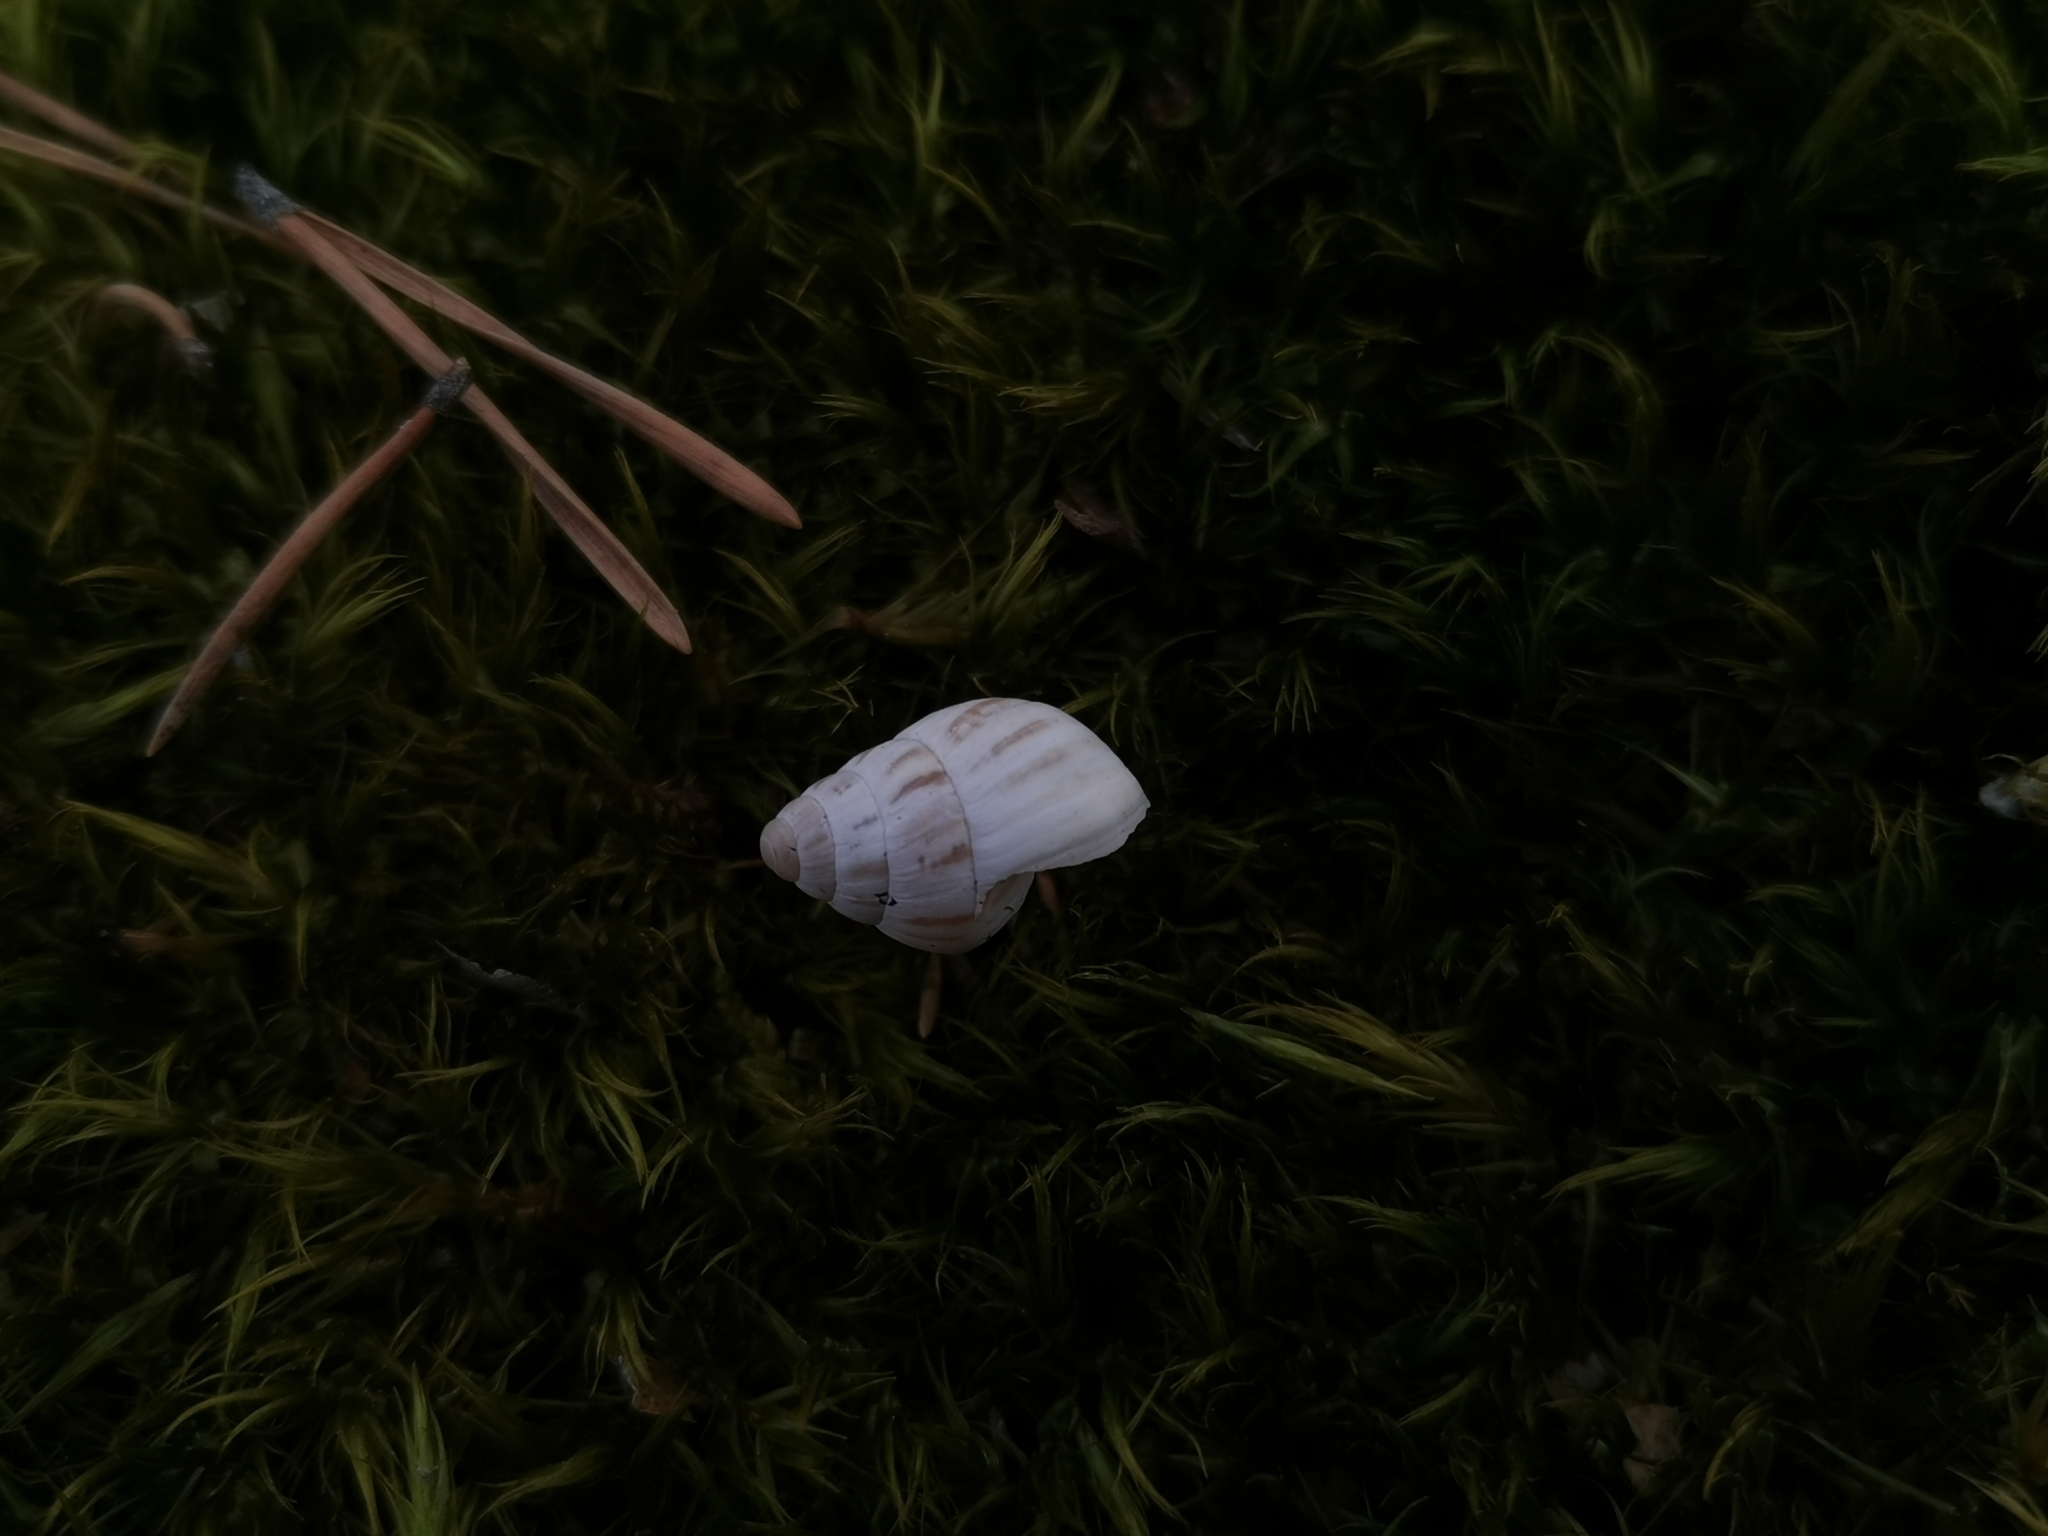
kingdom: Animalia
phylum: Mollusca
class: Gastropoda
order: Stylommatophora
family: Enidae
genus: Zebrina
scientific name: Zebrina detrita
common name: Large bulin
